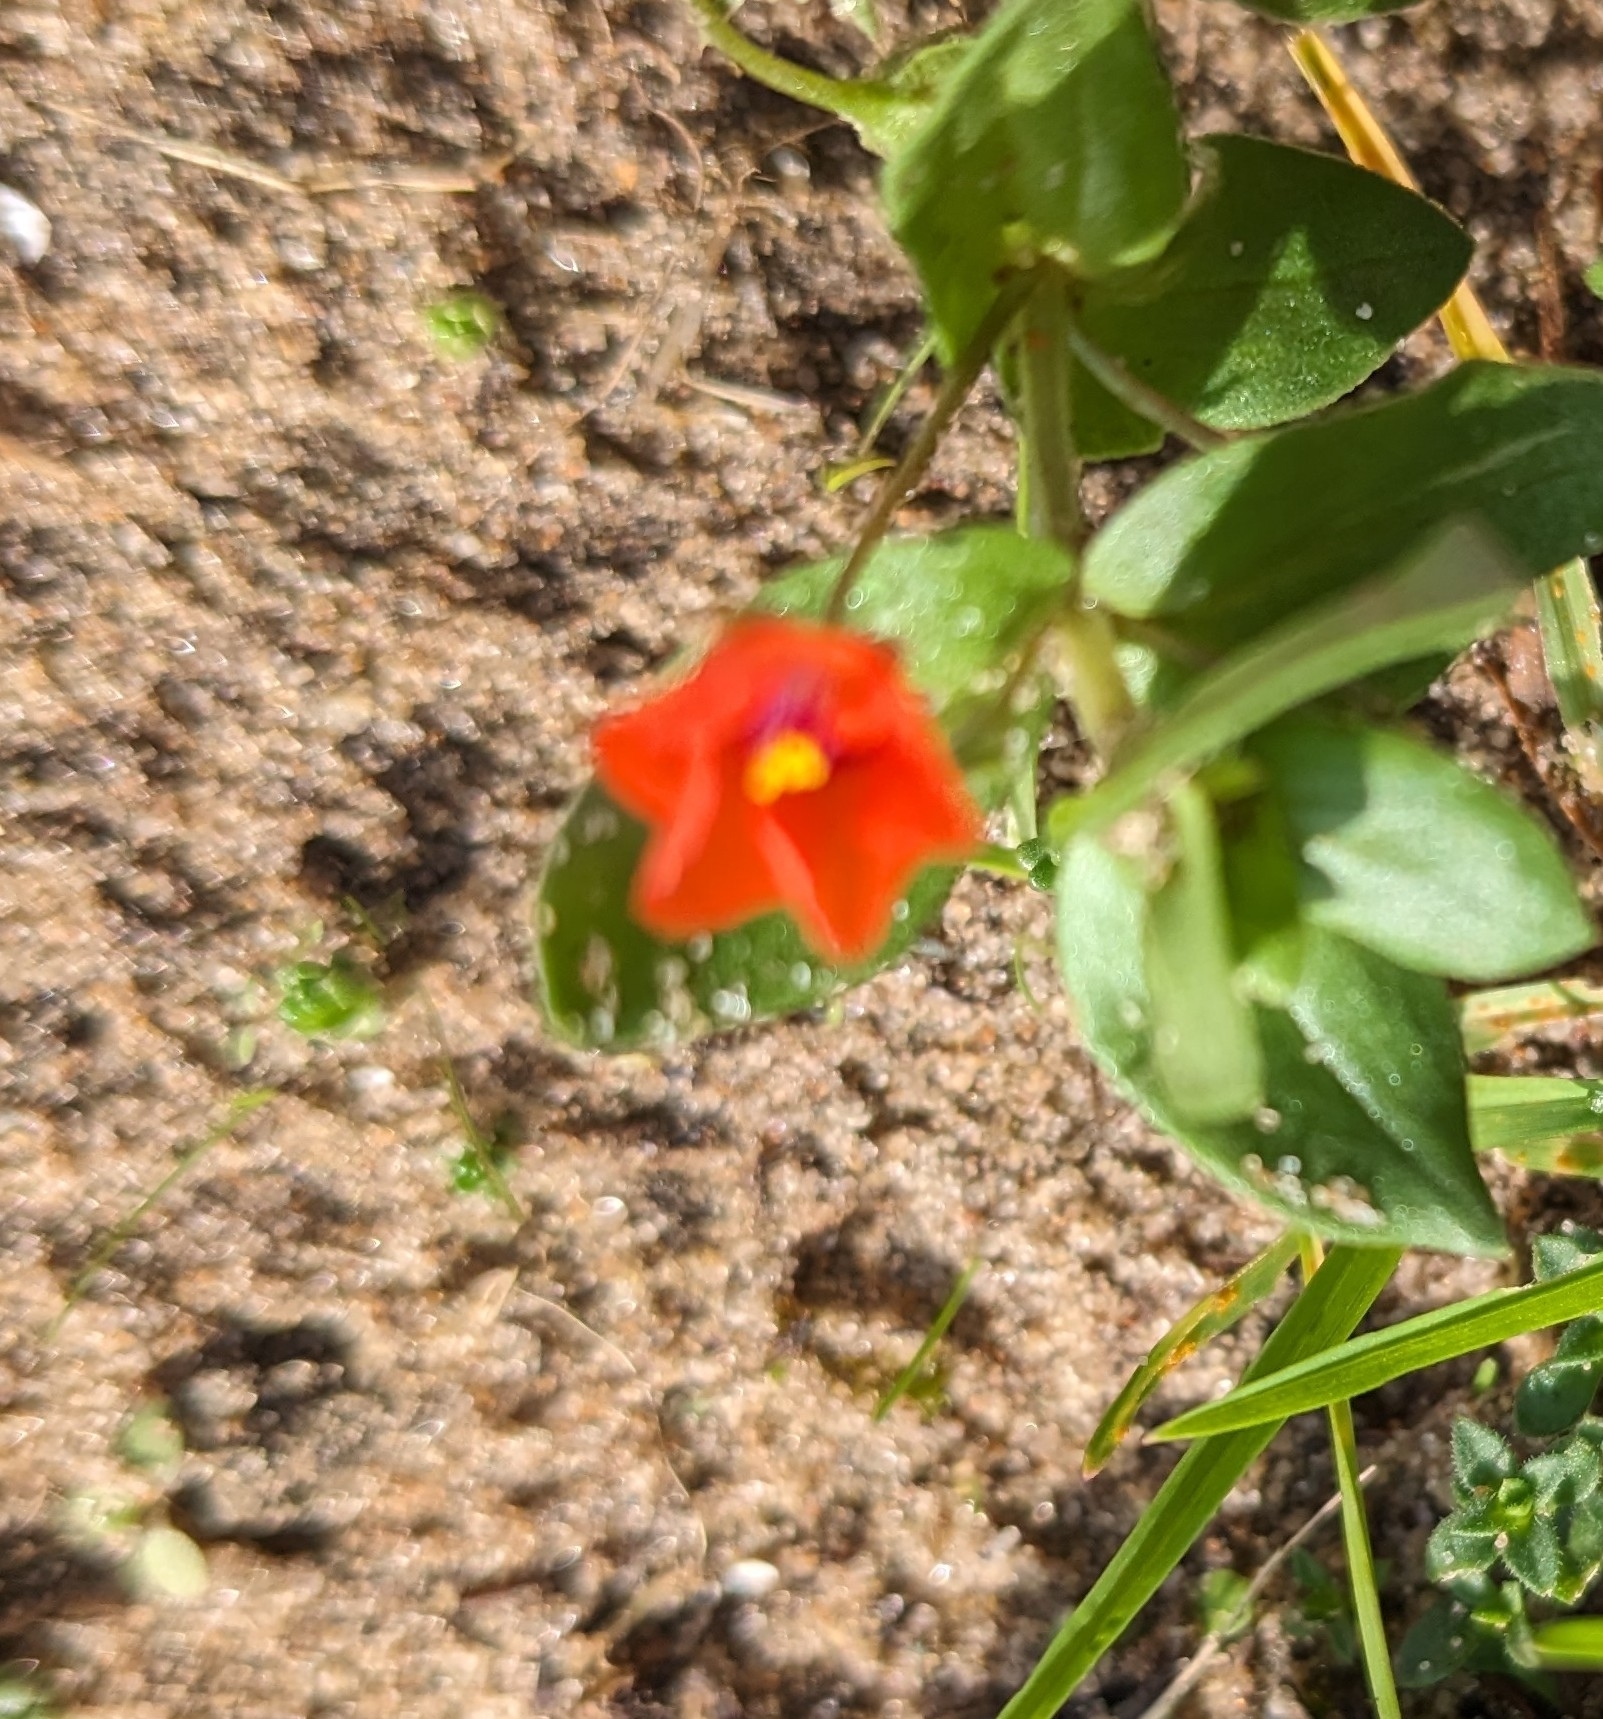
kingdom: Plantae
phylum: Tracheophyta
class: Magnoliopsida
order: Ericales
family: Primulaceae
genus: Lysimachia
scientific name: Lysimachia arvensis
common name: Scarlet pimpernel
